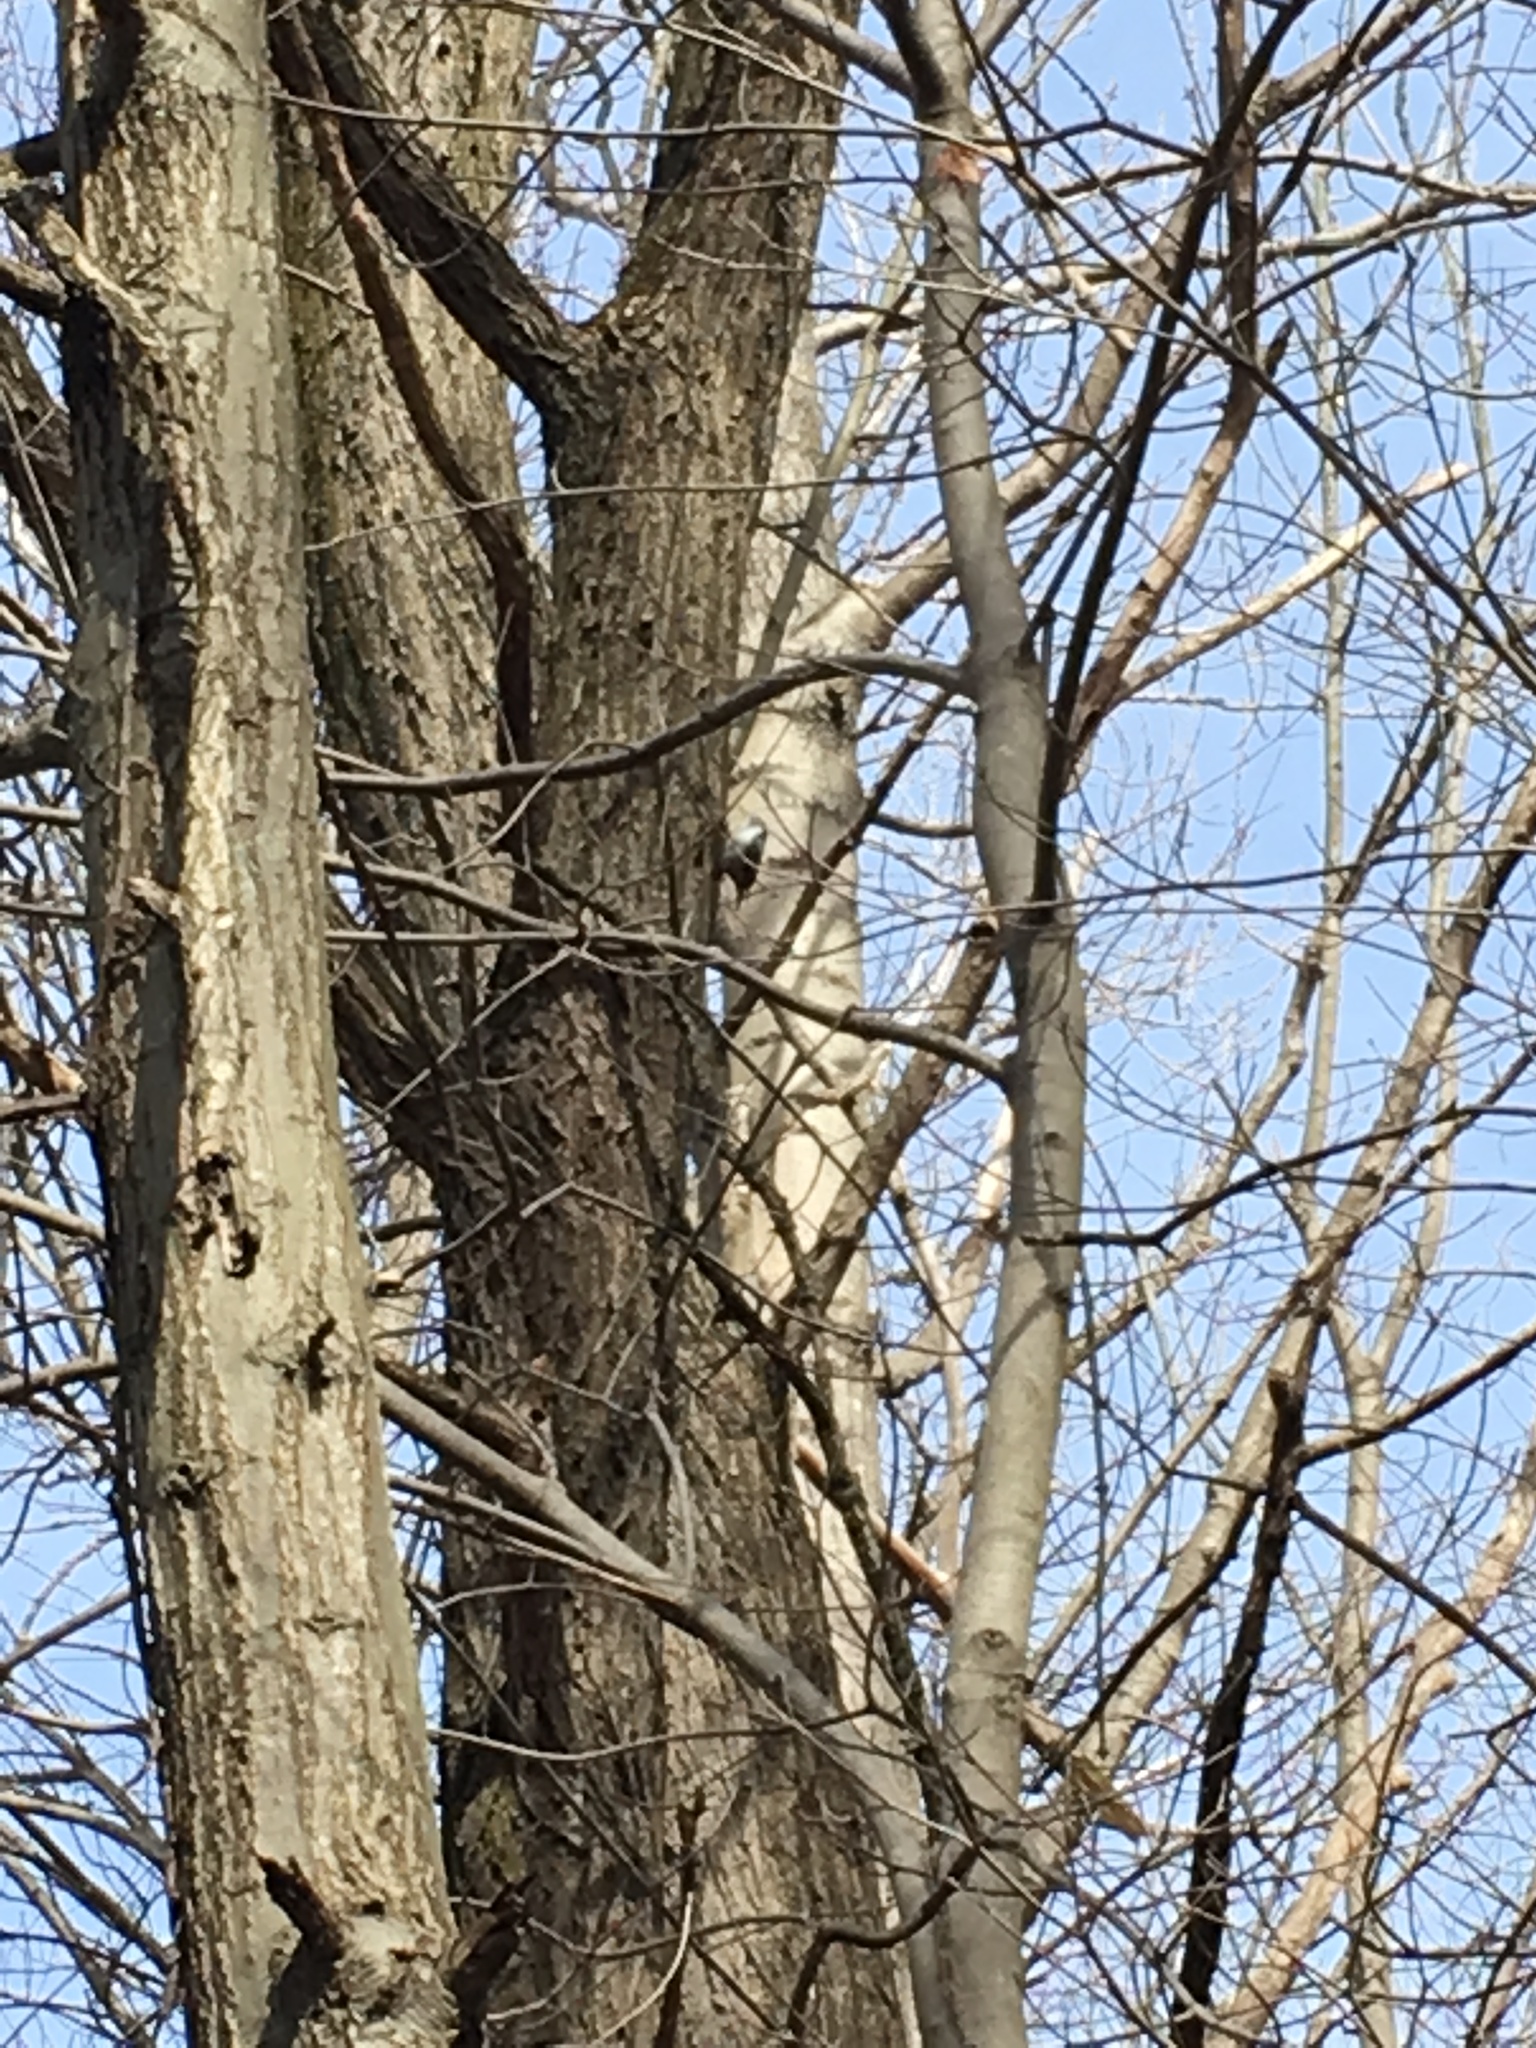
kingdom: Animalia
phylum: Chordata
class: Aves
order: Passeriformes
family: Sittidae
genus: Sitta
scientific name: Sitta carolinensis
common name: White-breasted nuthatch
